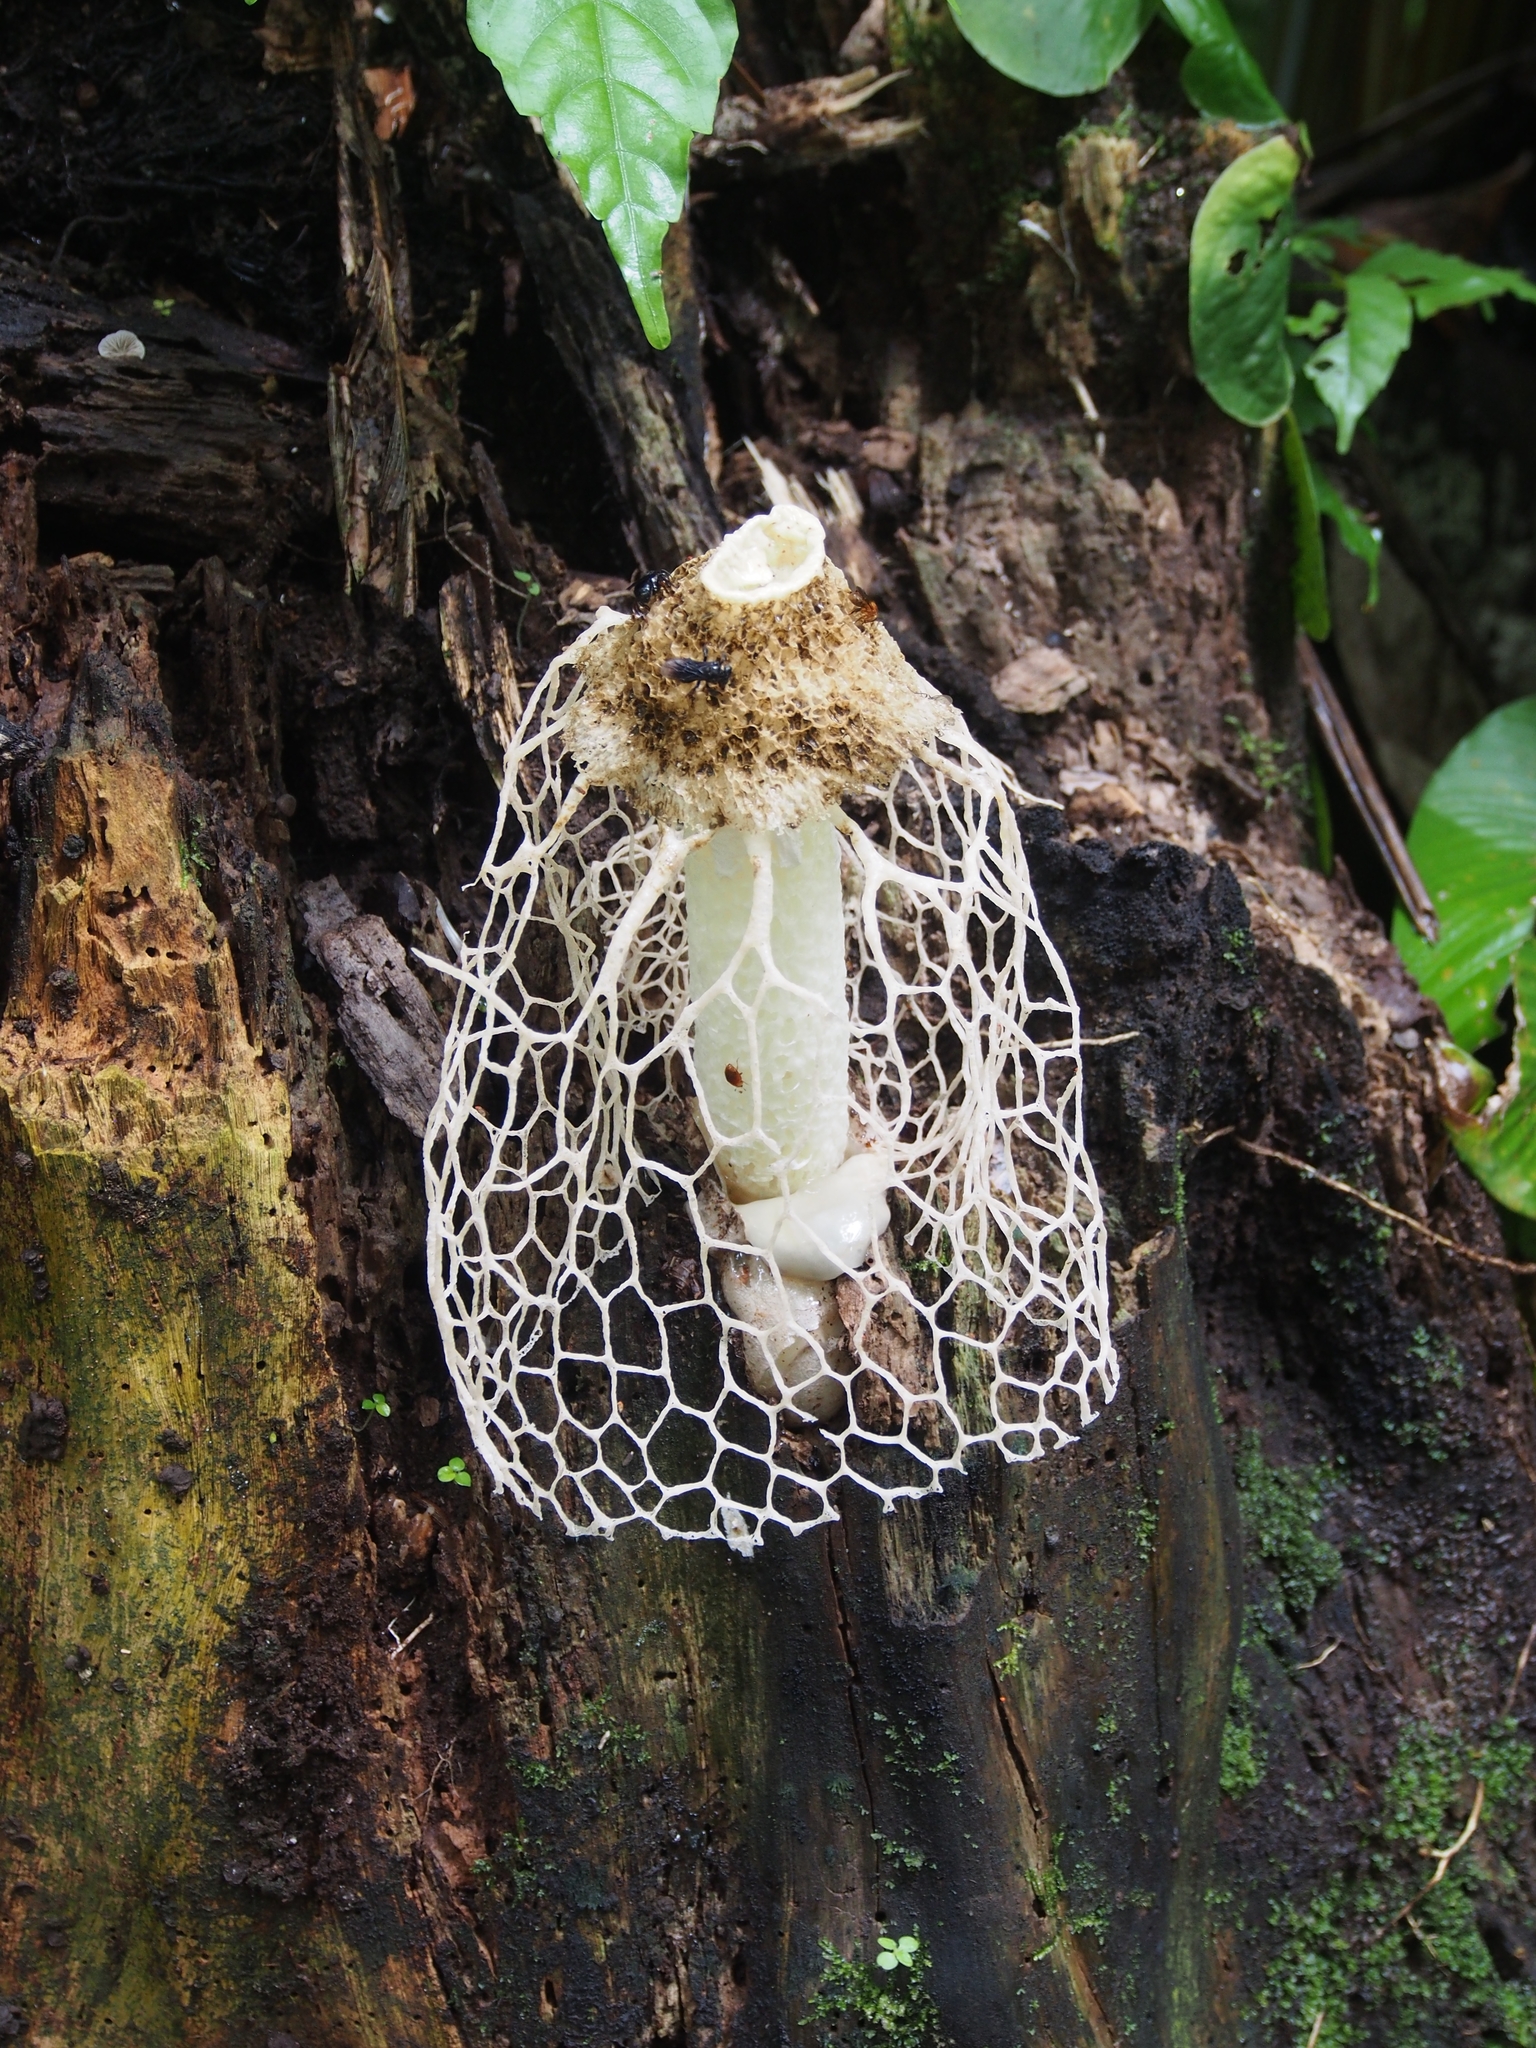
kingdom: Fungi
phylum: Basidiomycota
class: Agaricomycetes
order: Phallales
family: Phallaceae
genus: Phallus
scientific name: Phallus indusiatus
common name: Bridal veil stinkhorn
